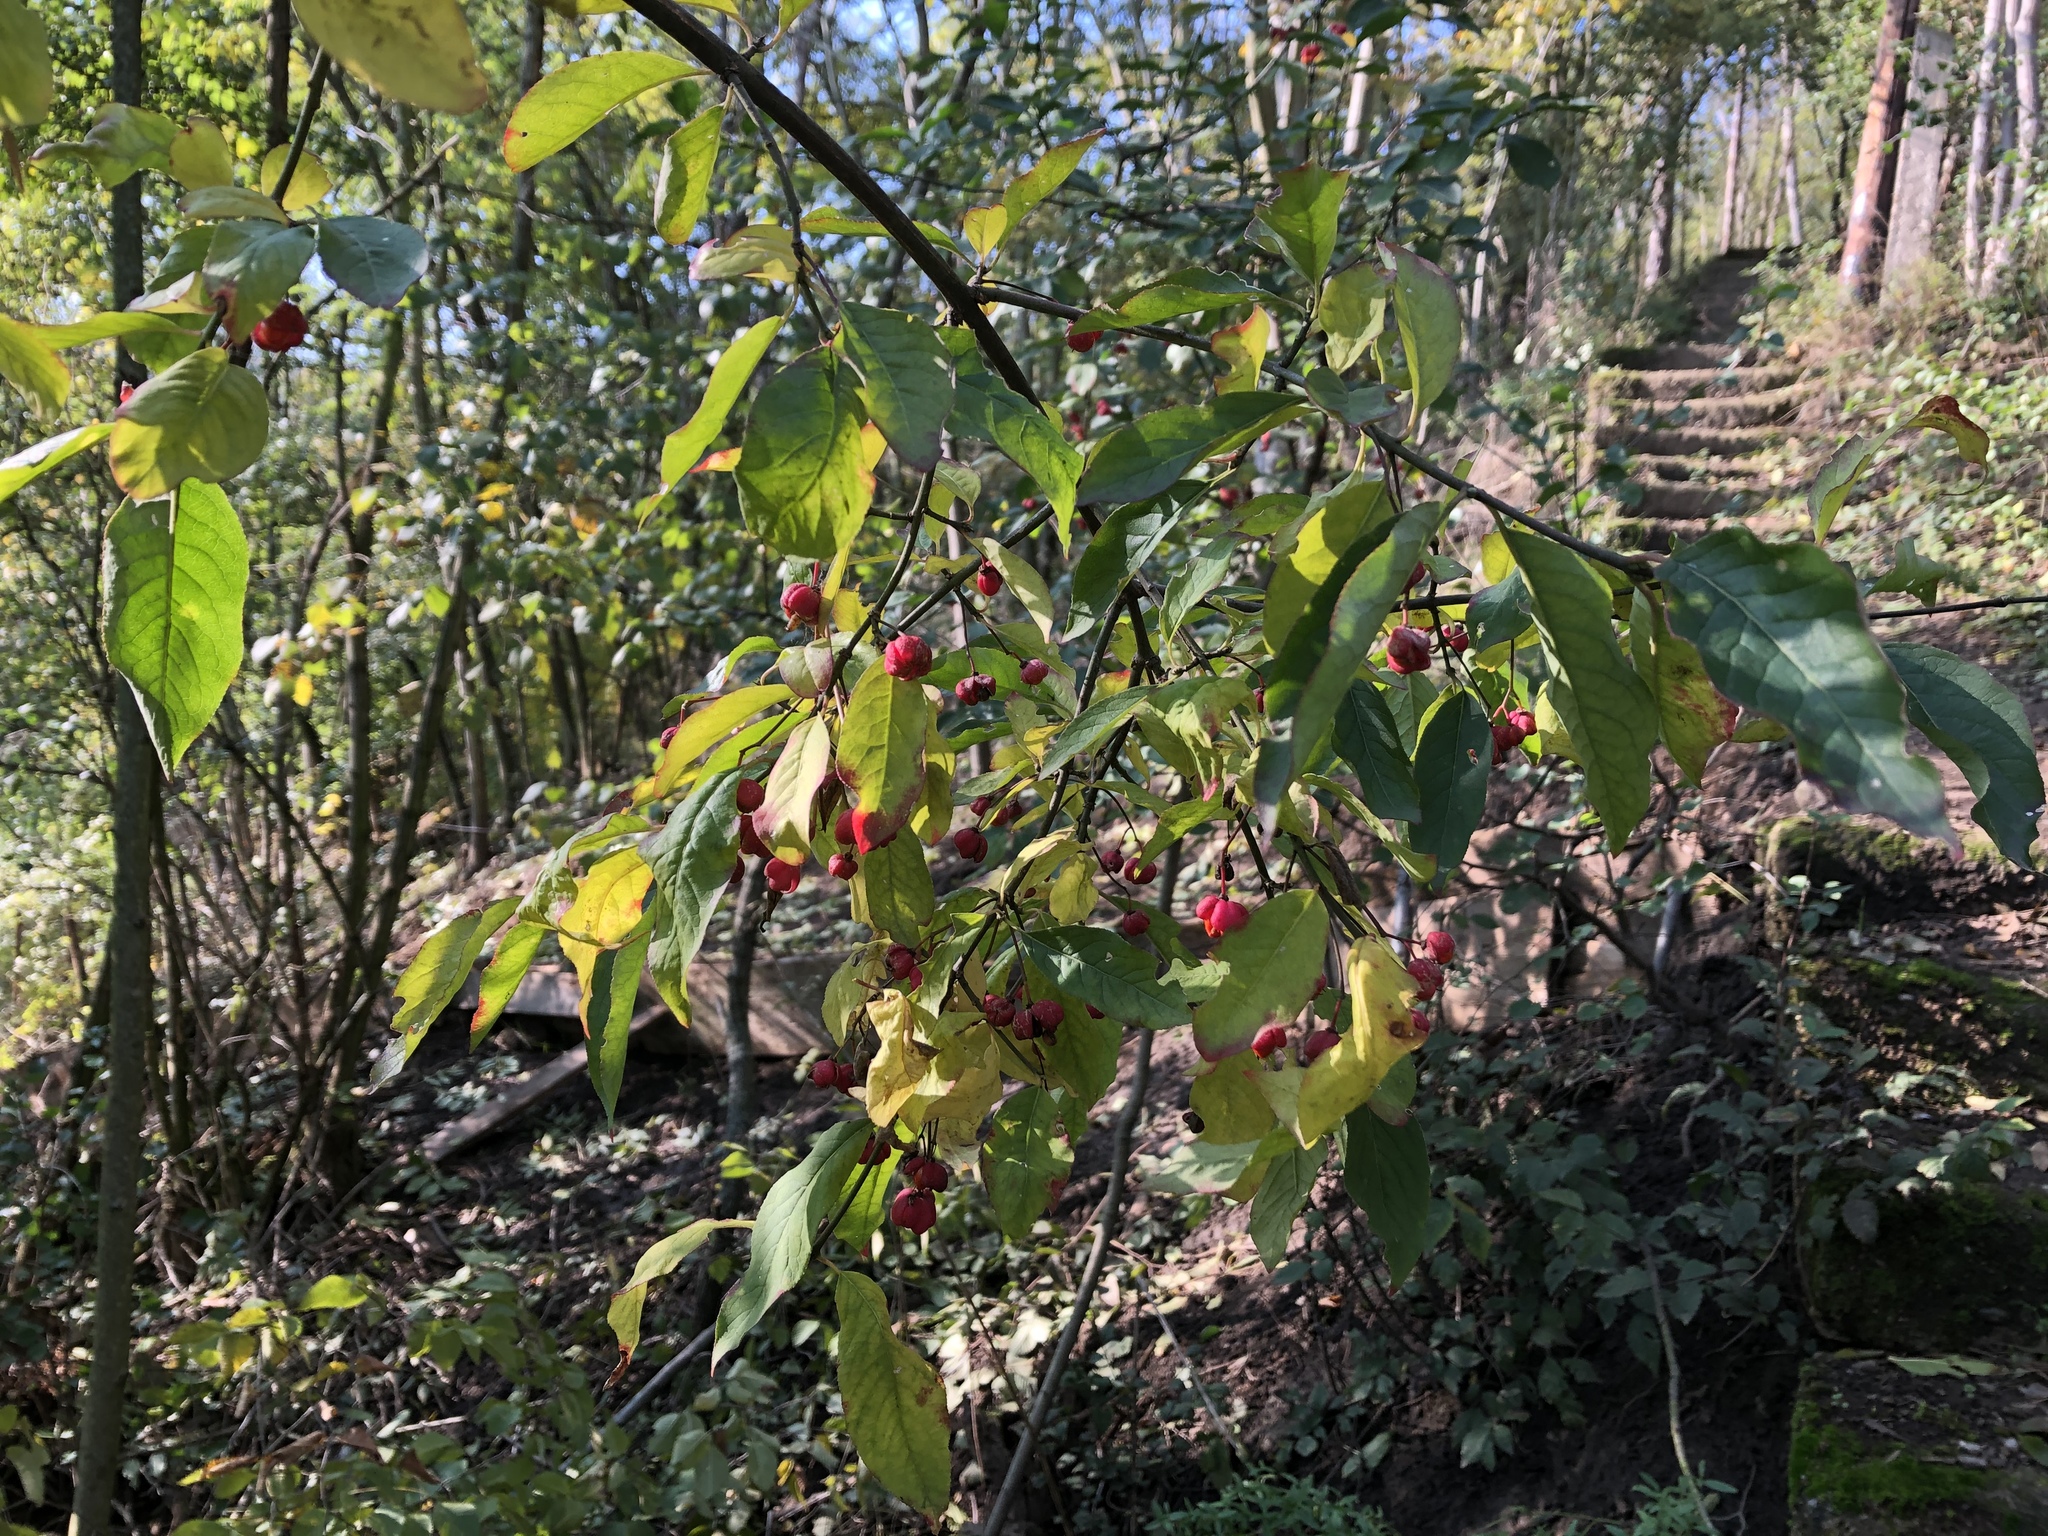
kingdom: Plantae
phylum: Tracheophyta
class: Magnoliopsida
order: Celastrales
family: Celastraceae
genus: Euonymus
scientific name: Euonymus europaeus
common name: Spindle
